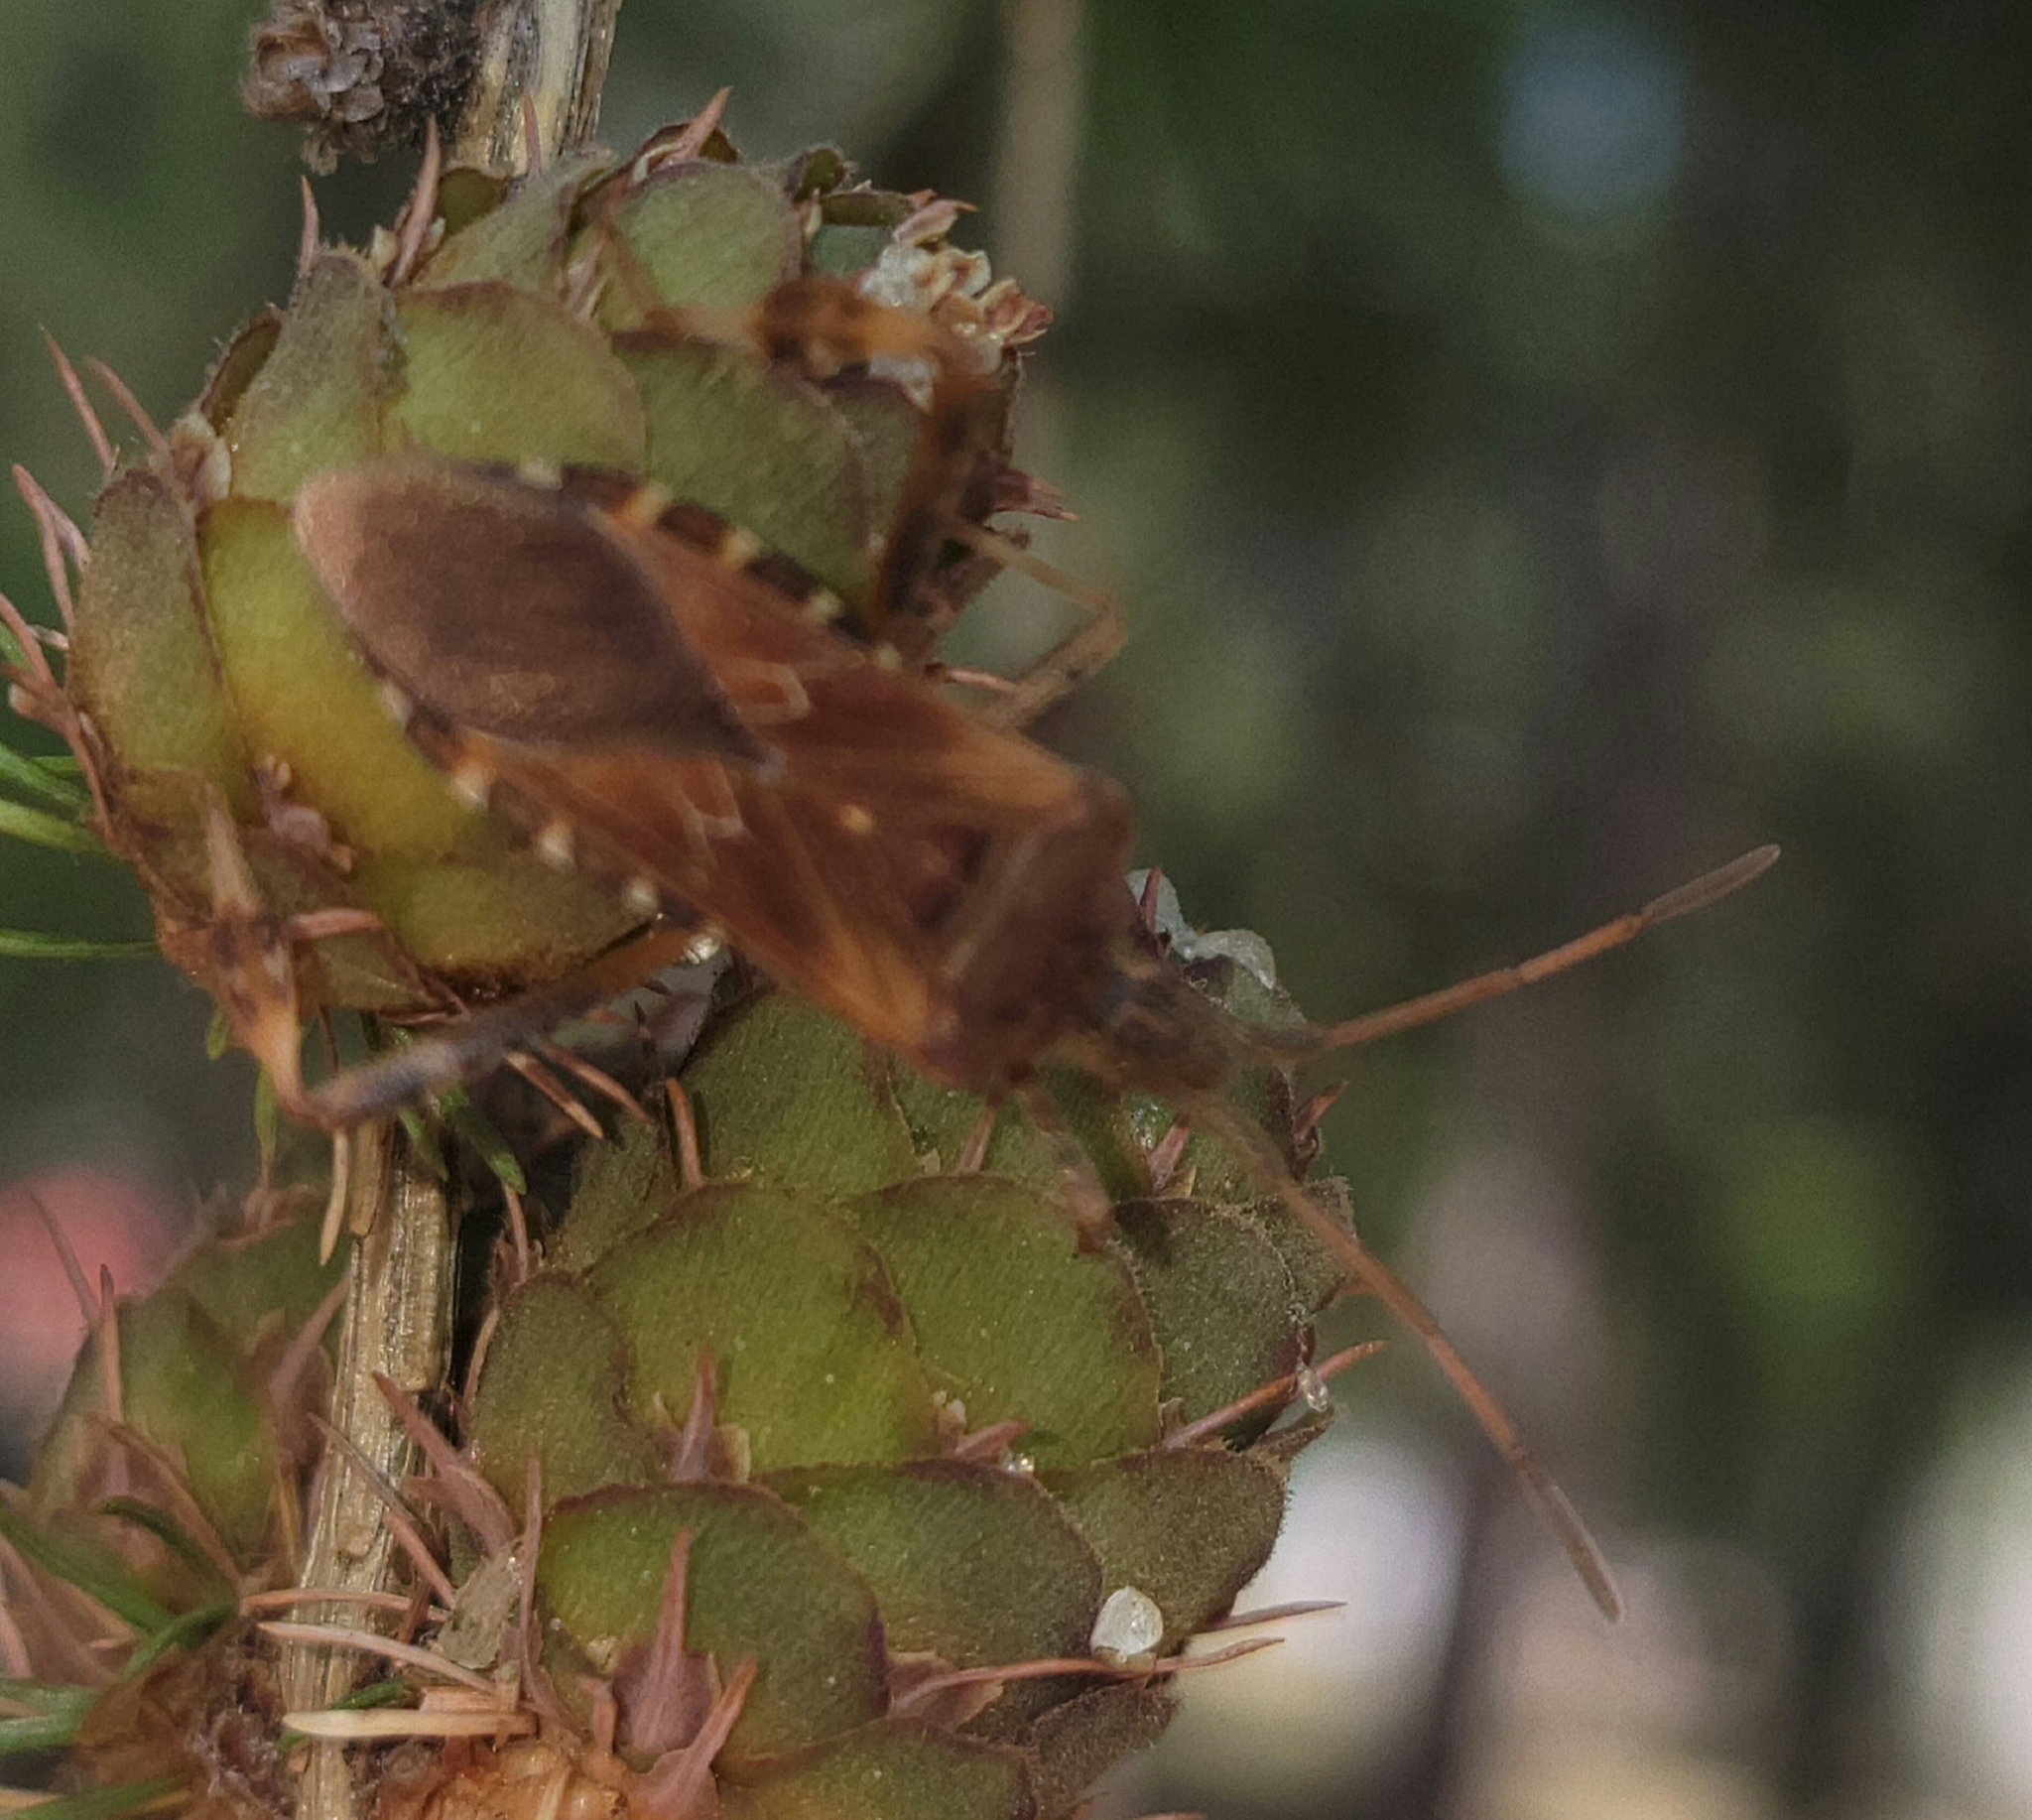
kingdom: Animalia
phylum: Arthropoda
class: Insecta
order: Hemiptera
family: Coreidae
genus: Leptoglossus
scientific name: Leptoglossus occidentalis
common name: Western conifer-seed bug
